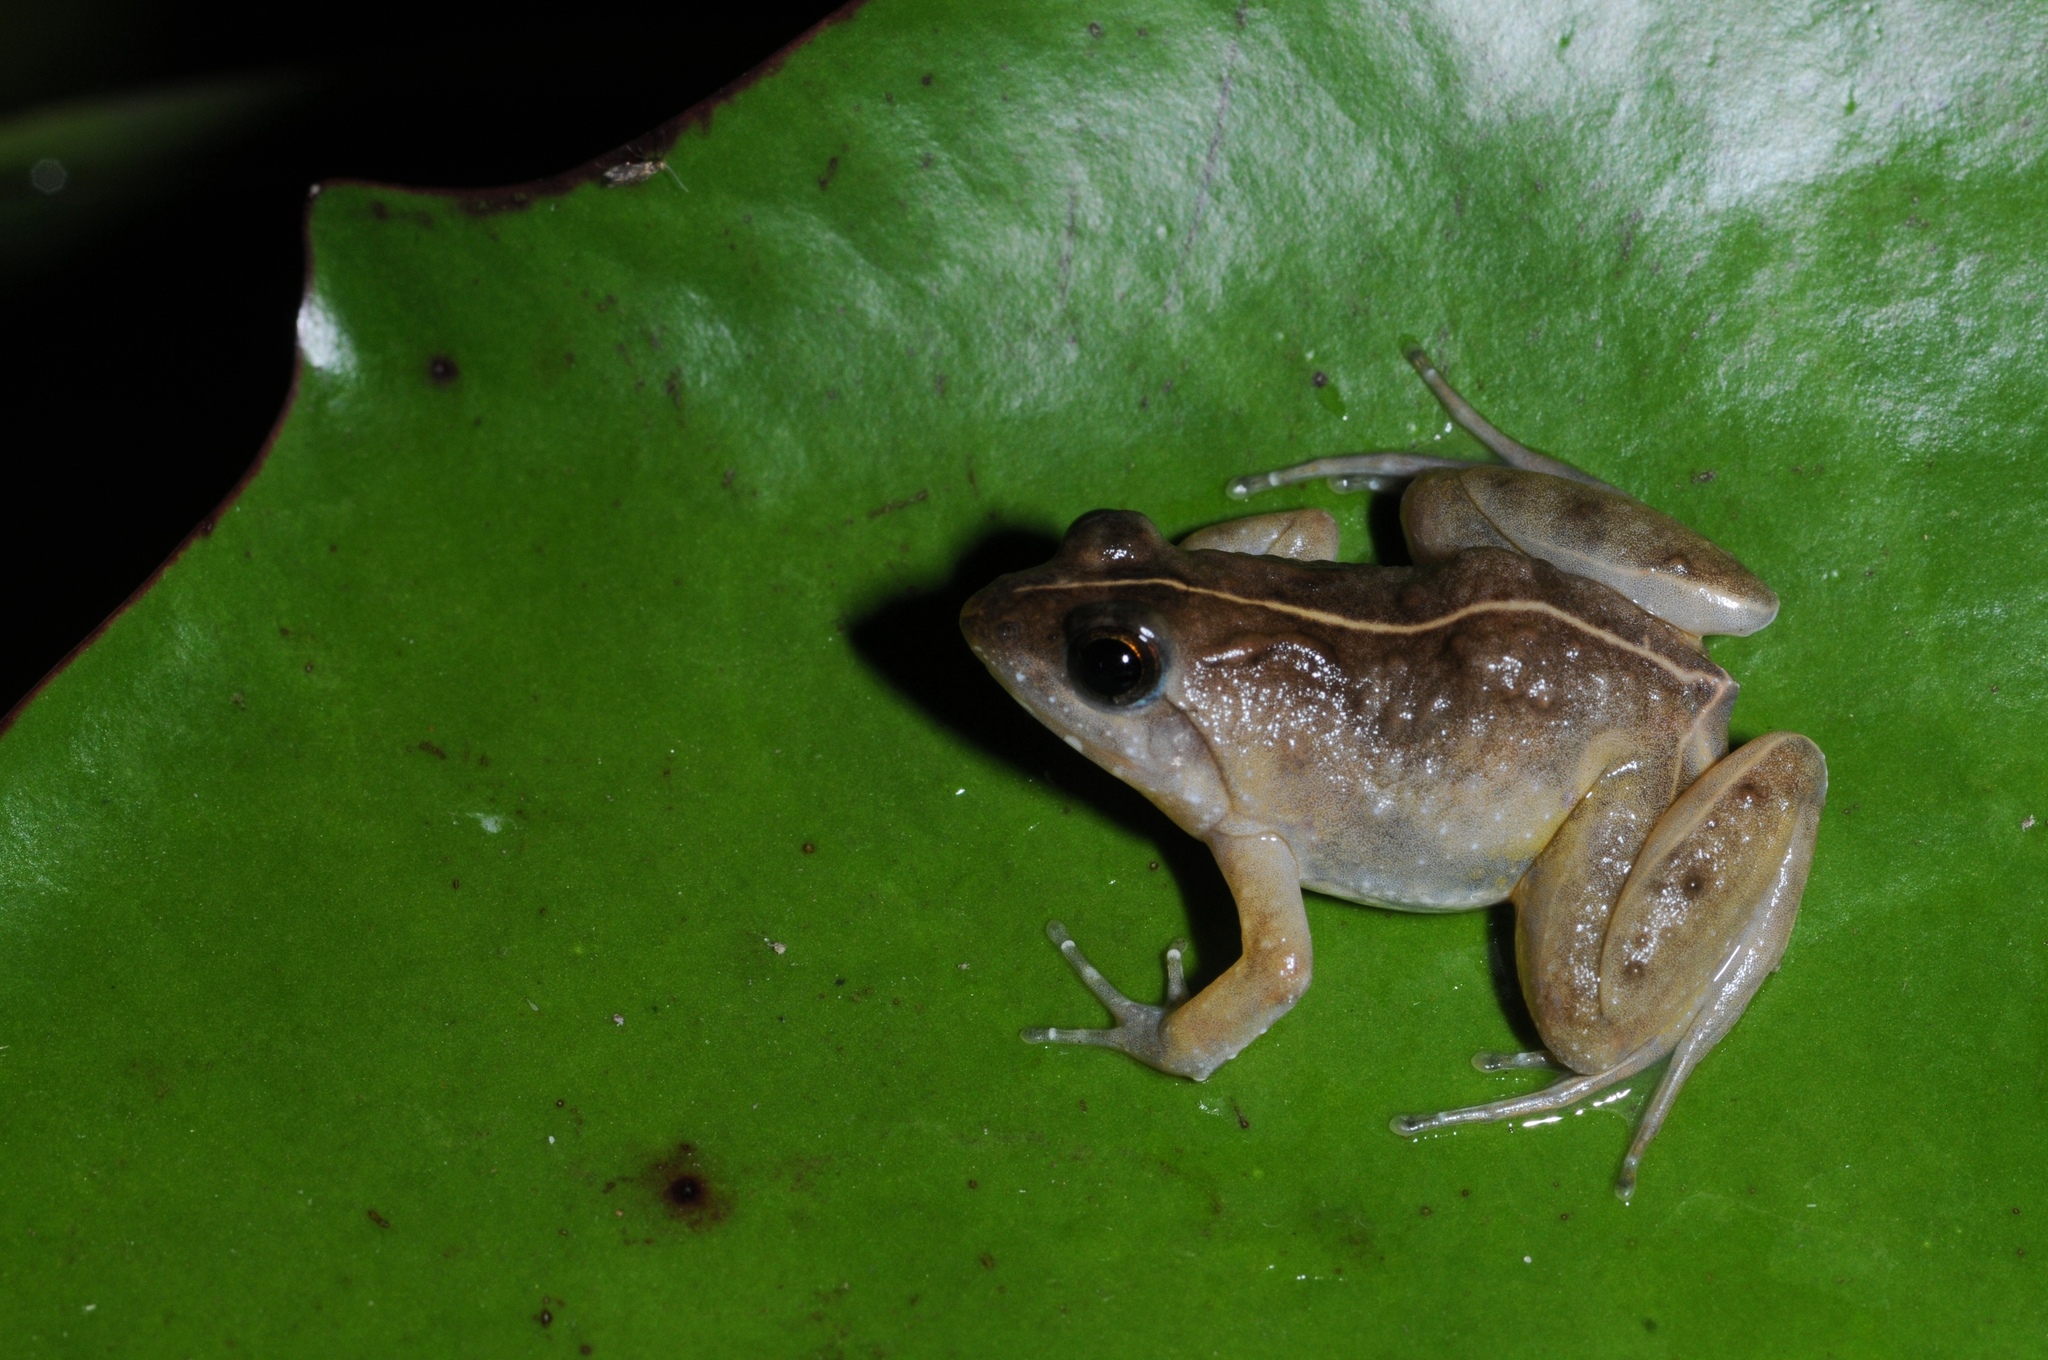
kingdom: Animalia
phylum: Chordata
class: Amphibia
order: Anura
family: Phrynobatrachidae
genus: Phrynobatrachus
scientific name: Phrynobatrachus acridoides
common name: East african puddle frog
